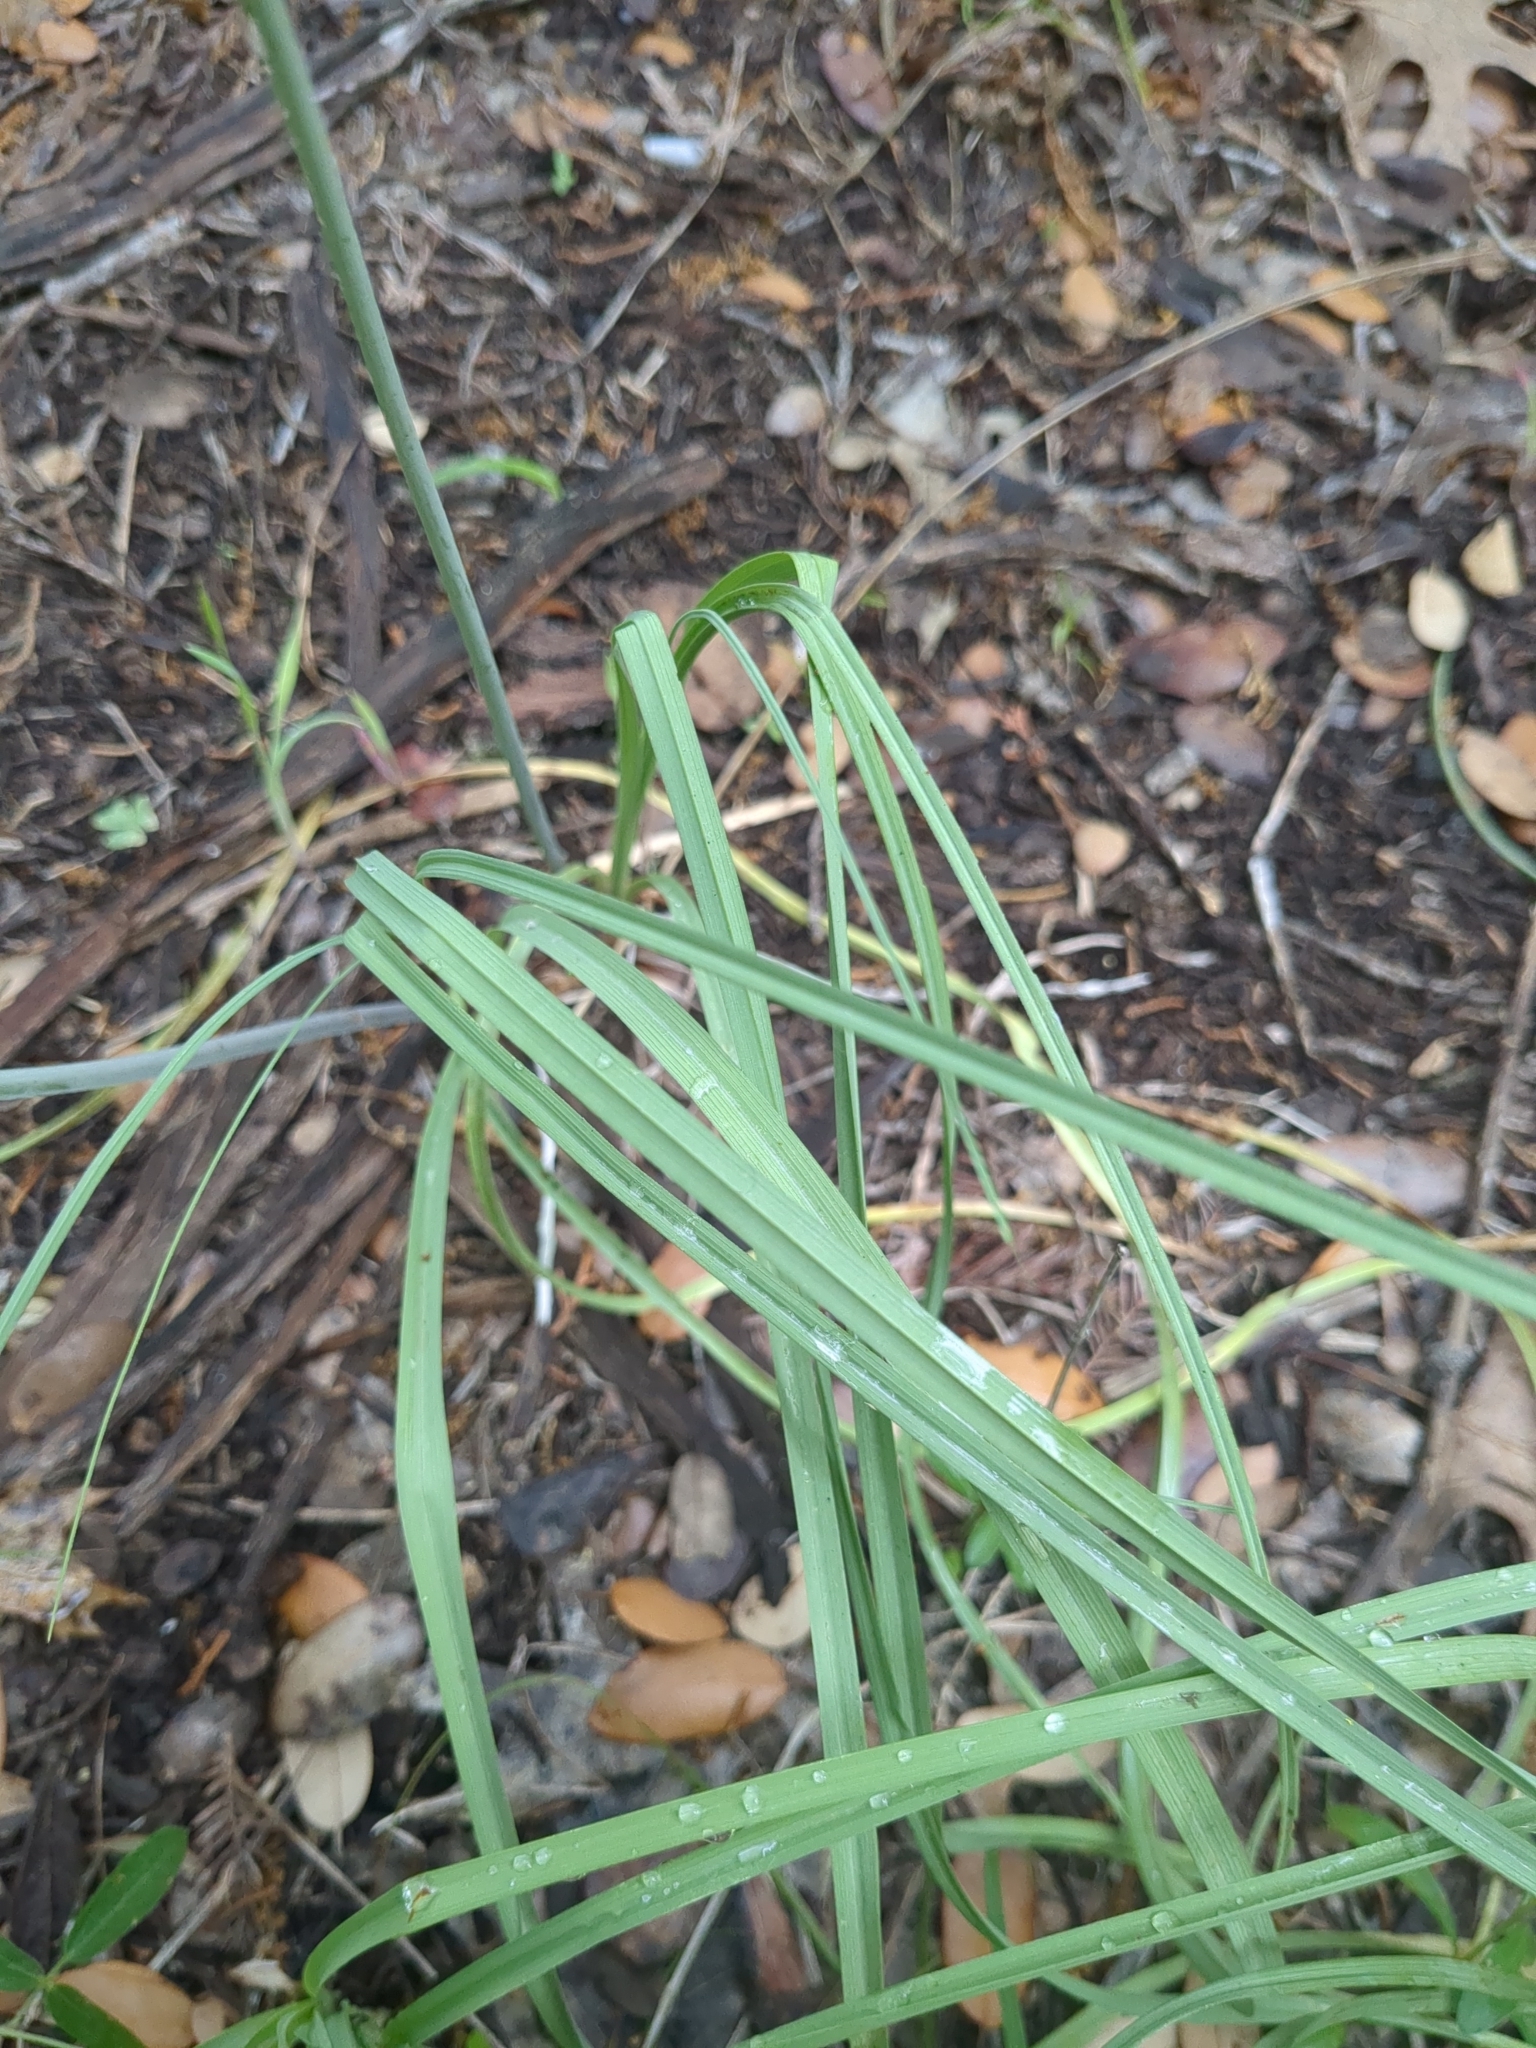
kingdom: Plantae
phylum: Tracheophyta
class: Liliopsida
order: Liliales
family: Melanthiaceae
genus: Schoenocaulon
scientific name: Schoenocaulon texanum
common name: Texas feather-shank
